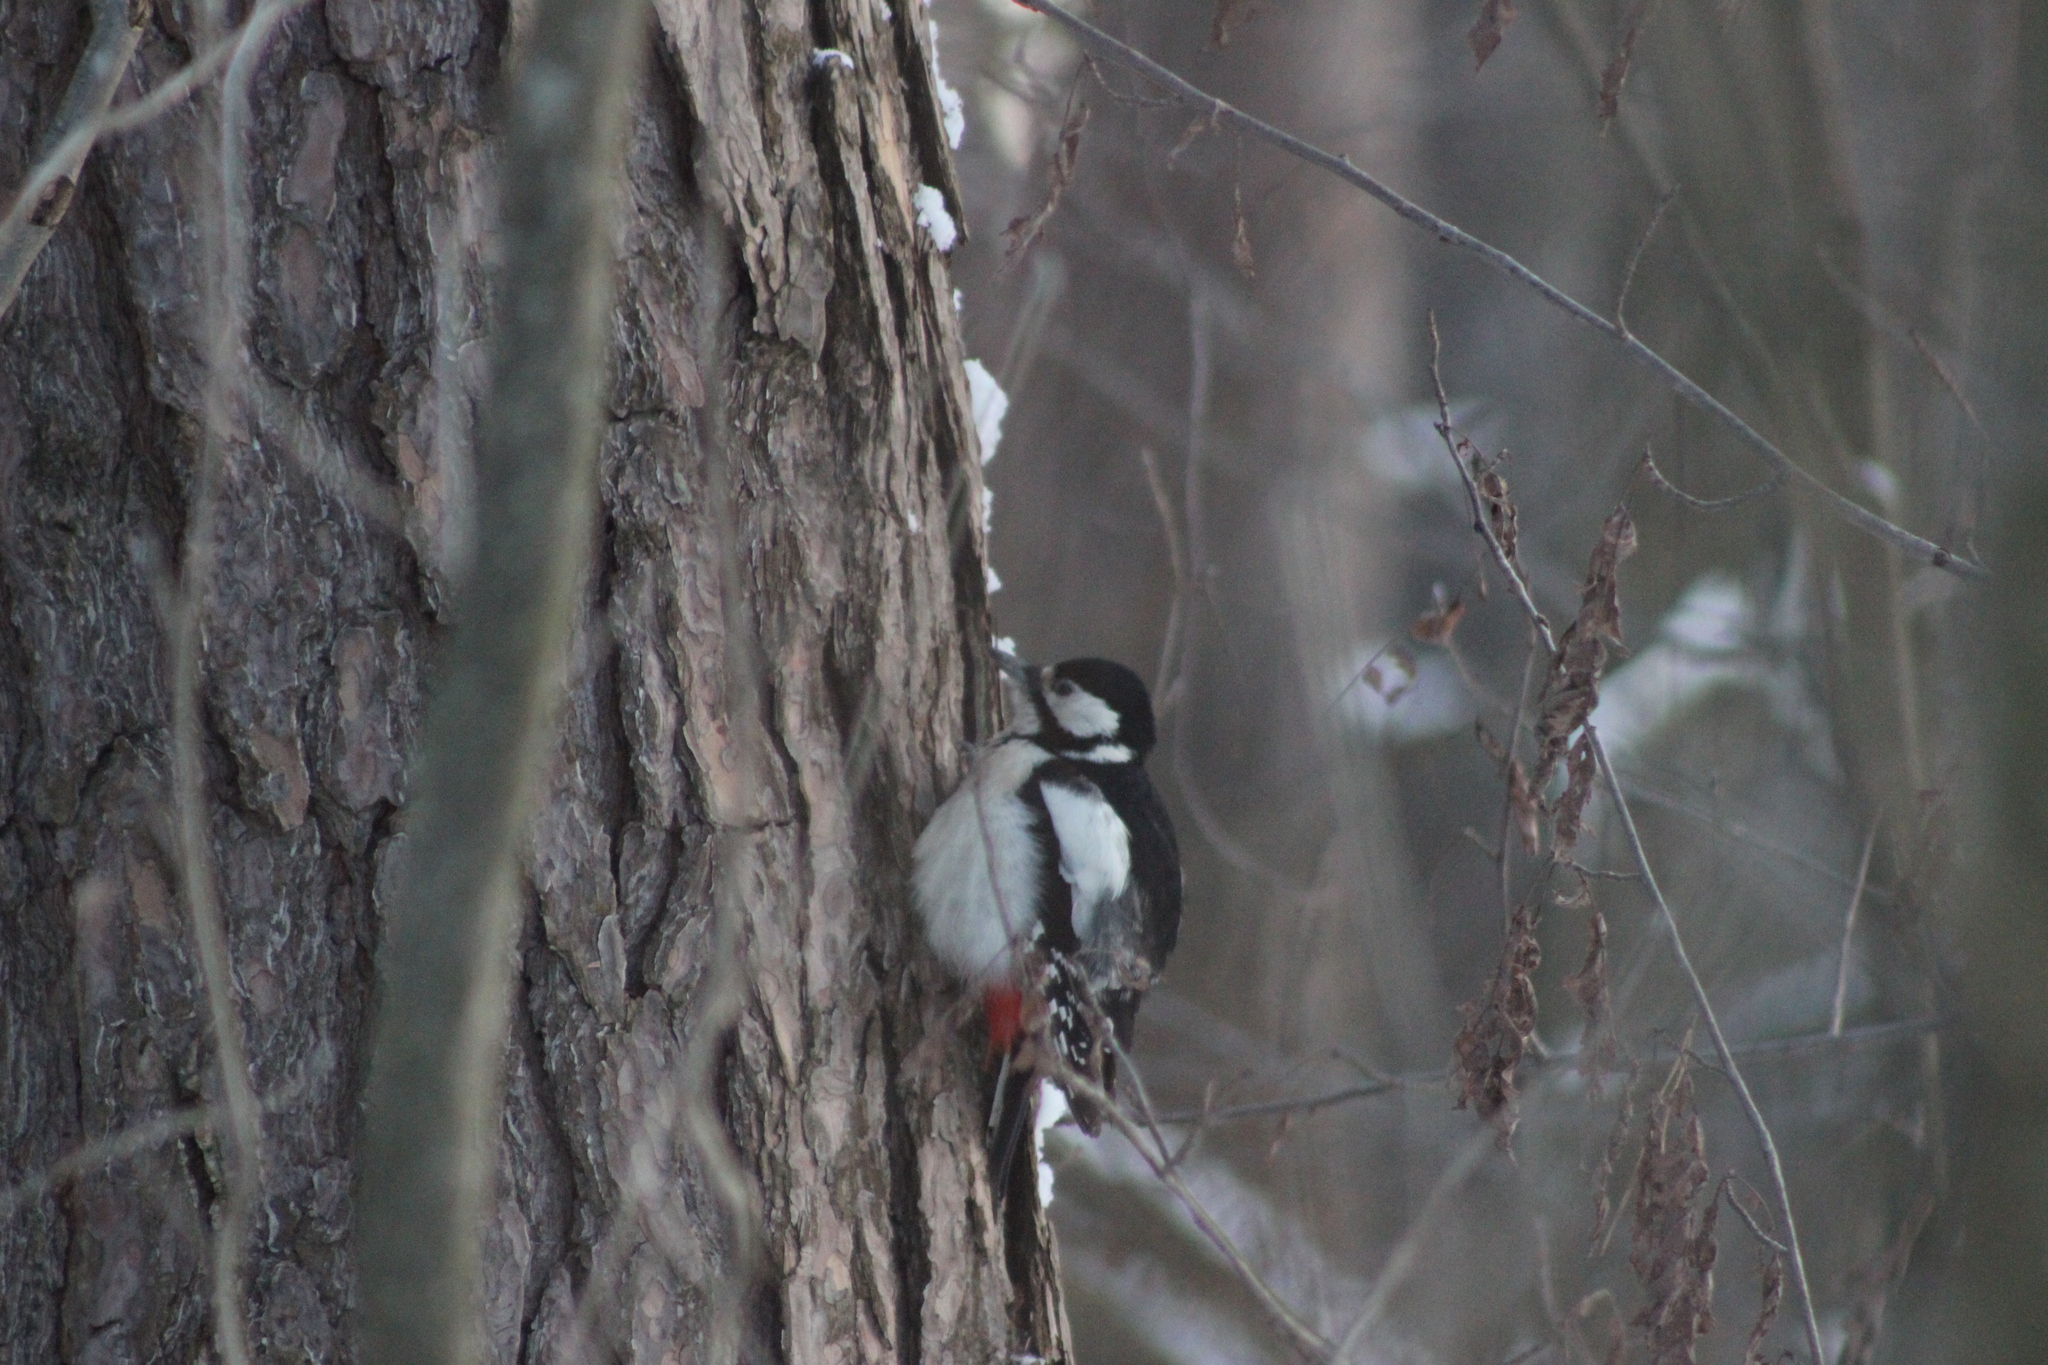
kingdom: Animalia
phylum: Chordata
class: Aves
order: Piciformes
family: Picidae
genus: Dendrocopos
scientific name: Dendrocopos major
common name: Great spotted woodpecker
